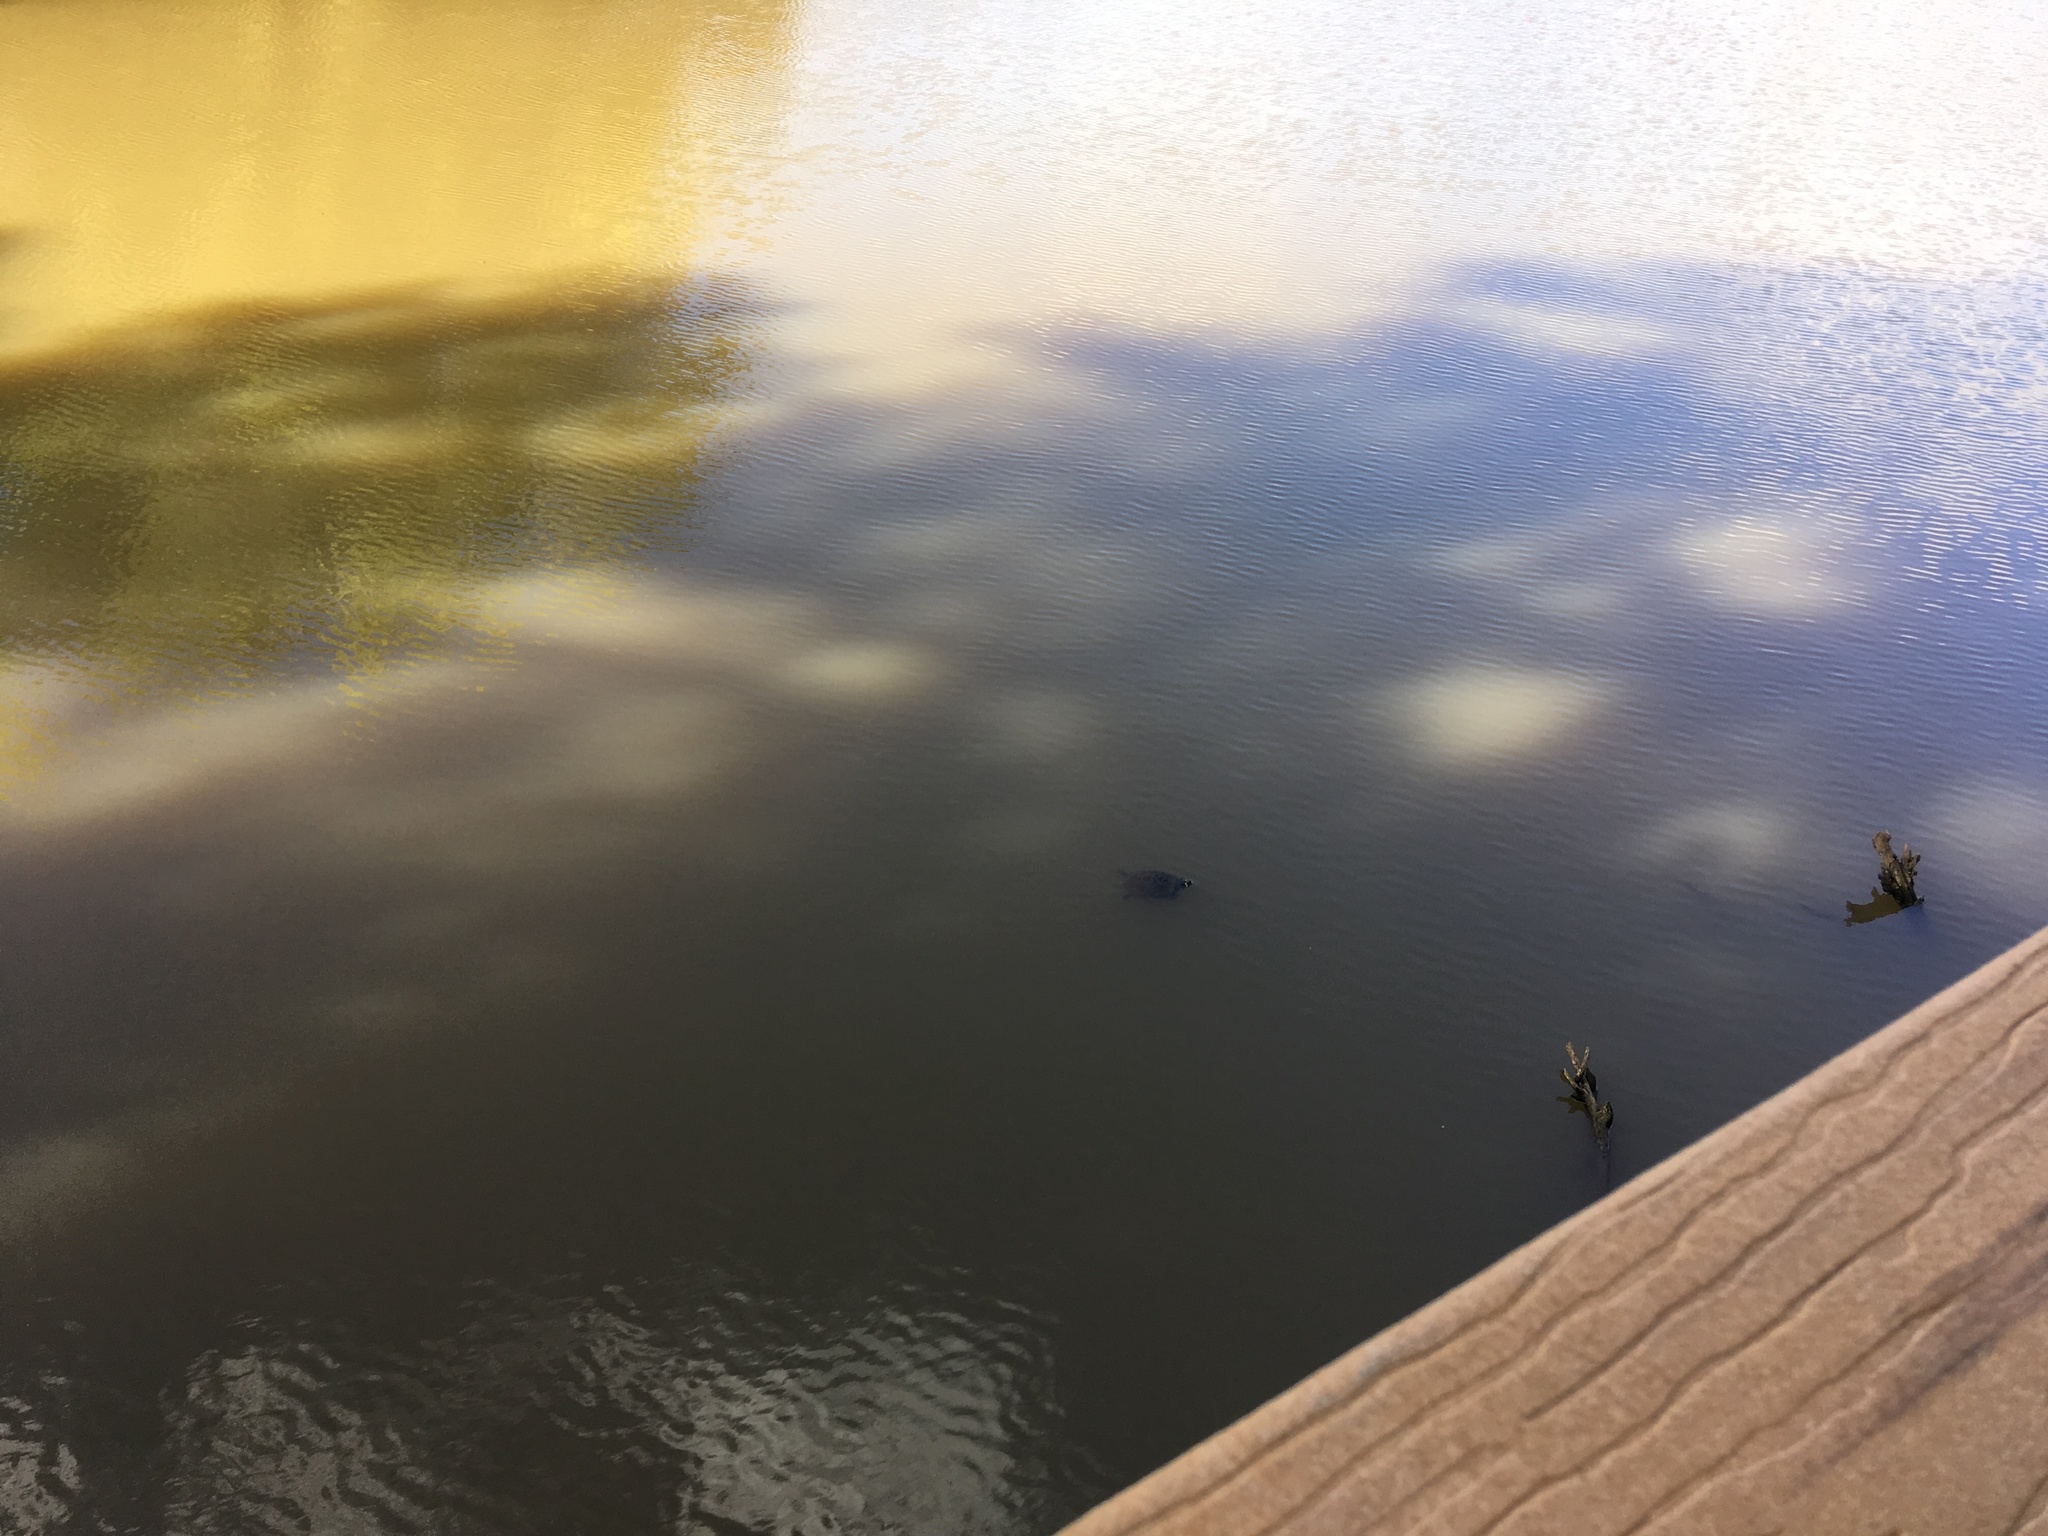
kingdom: Animalia
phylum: Chordata
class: Testudines
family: Emydidae
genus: Trachemys
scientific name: Trachemys scripta
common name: Slider
